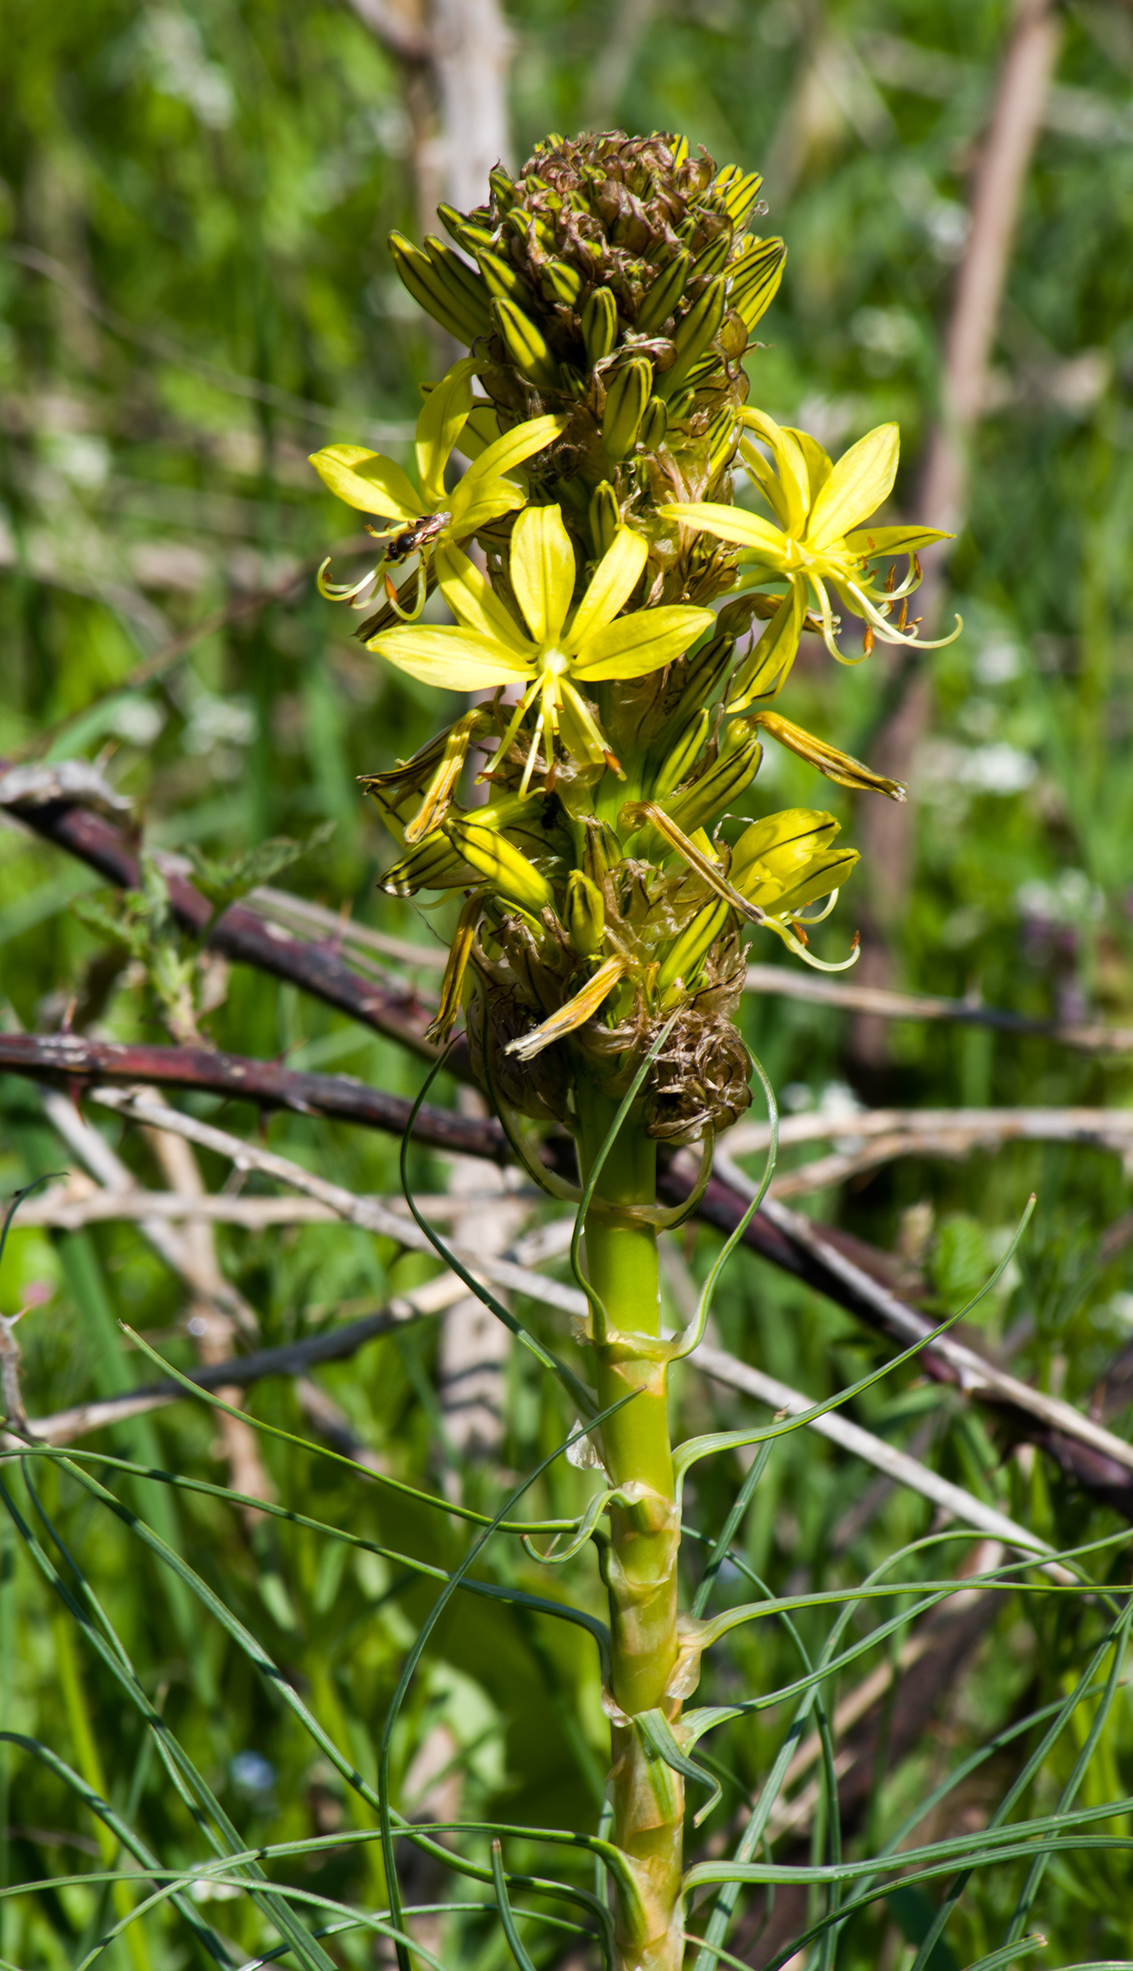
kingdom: Plantae
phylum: Tracheophyta
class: Liliopsida
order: Asparagales
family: Asphodelaceae
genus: Asphodeline
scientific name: Asphodeline lutea
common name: Yellow asphodel
